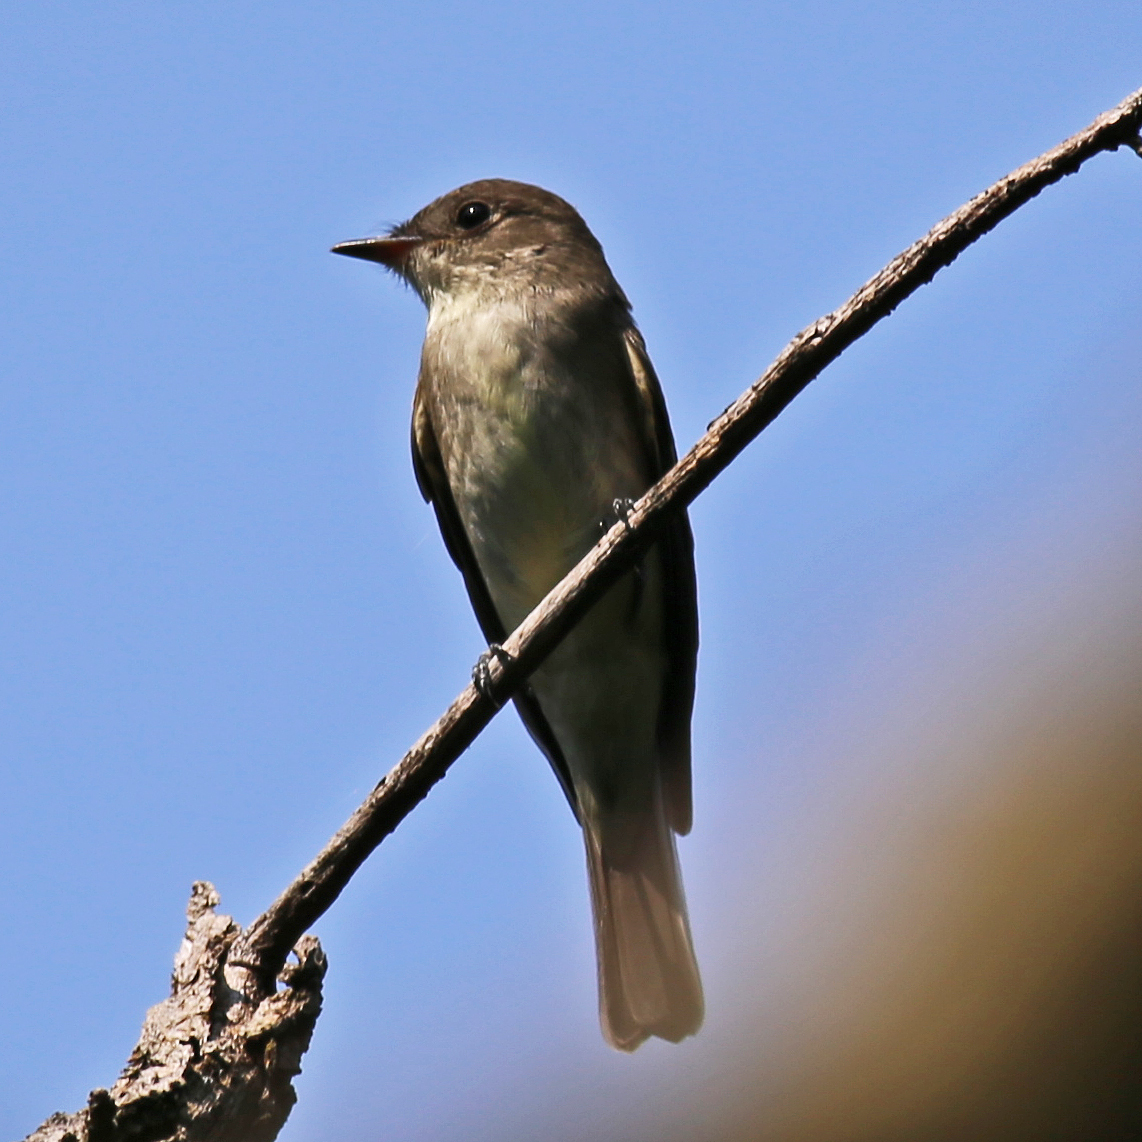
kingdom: Animalia
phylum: Chordata
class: Aves
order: Passeriformes
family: Tyrannidae
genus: Contopus
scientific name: Contopus virens
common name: Eastern wood-pewee
